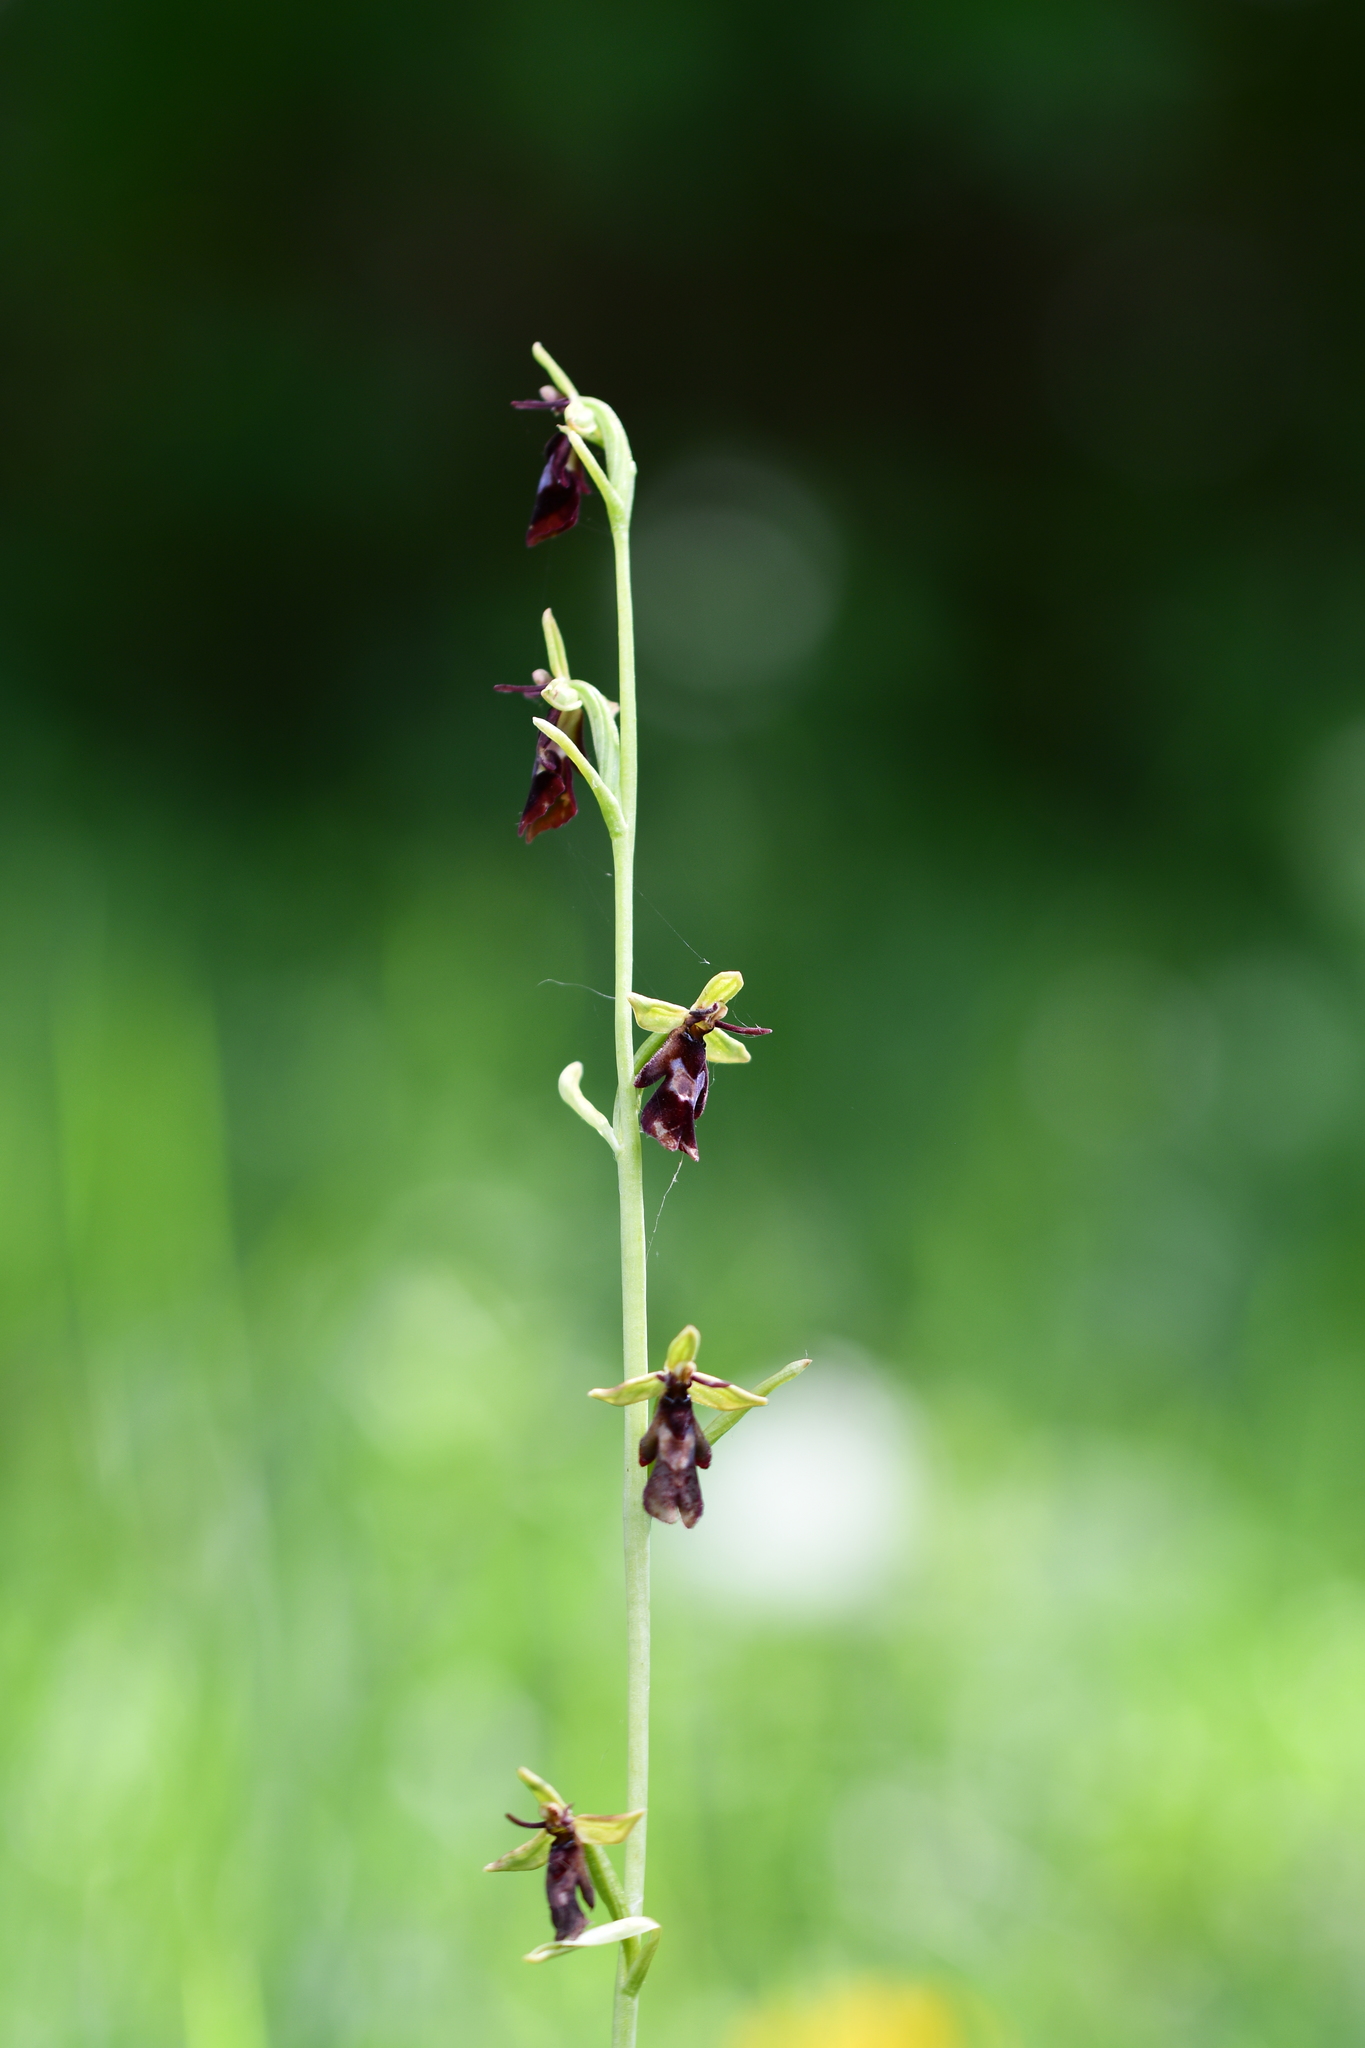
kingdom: Plantae
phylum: Tracheophyta
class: Liliopsida
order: Asparagales
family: Orchidaceae
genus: Ophrys
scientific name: Ophrys insectifera
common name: Fly orchid
